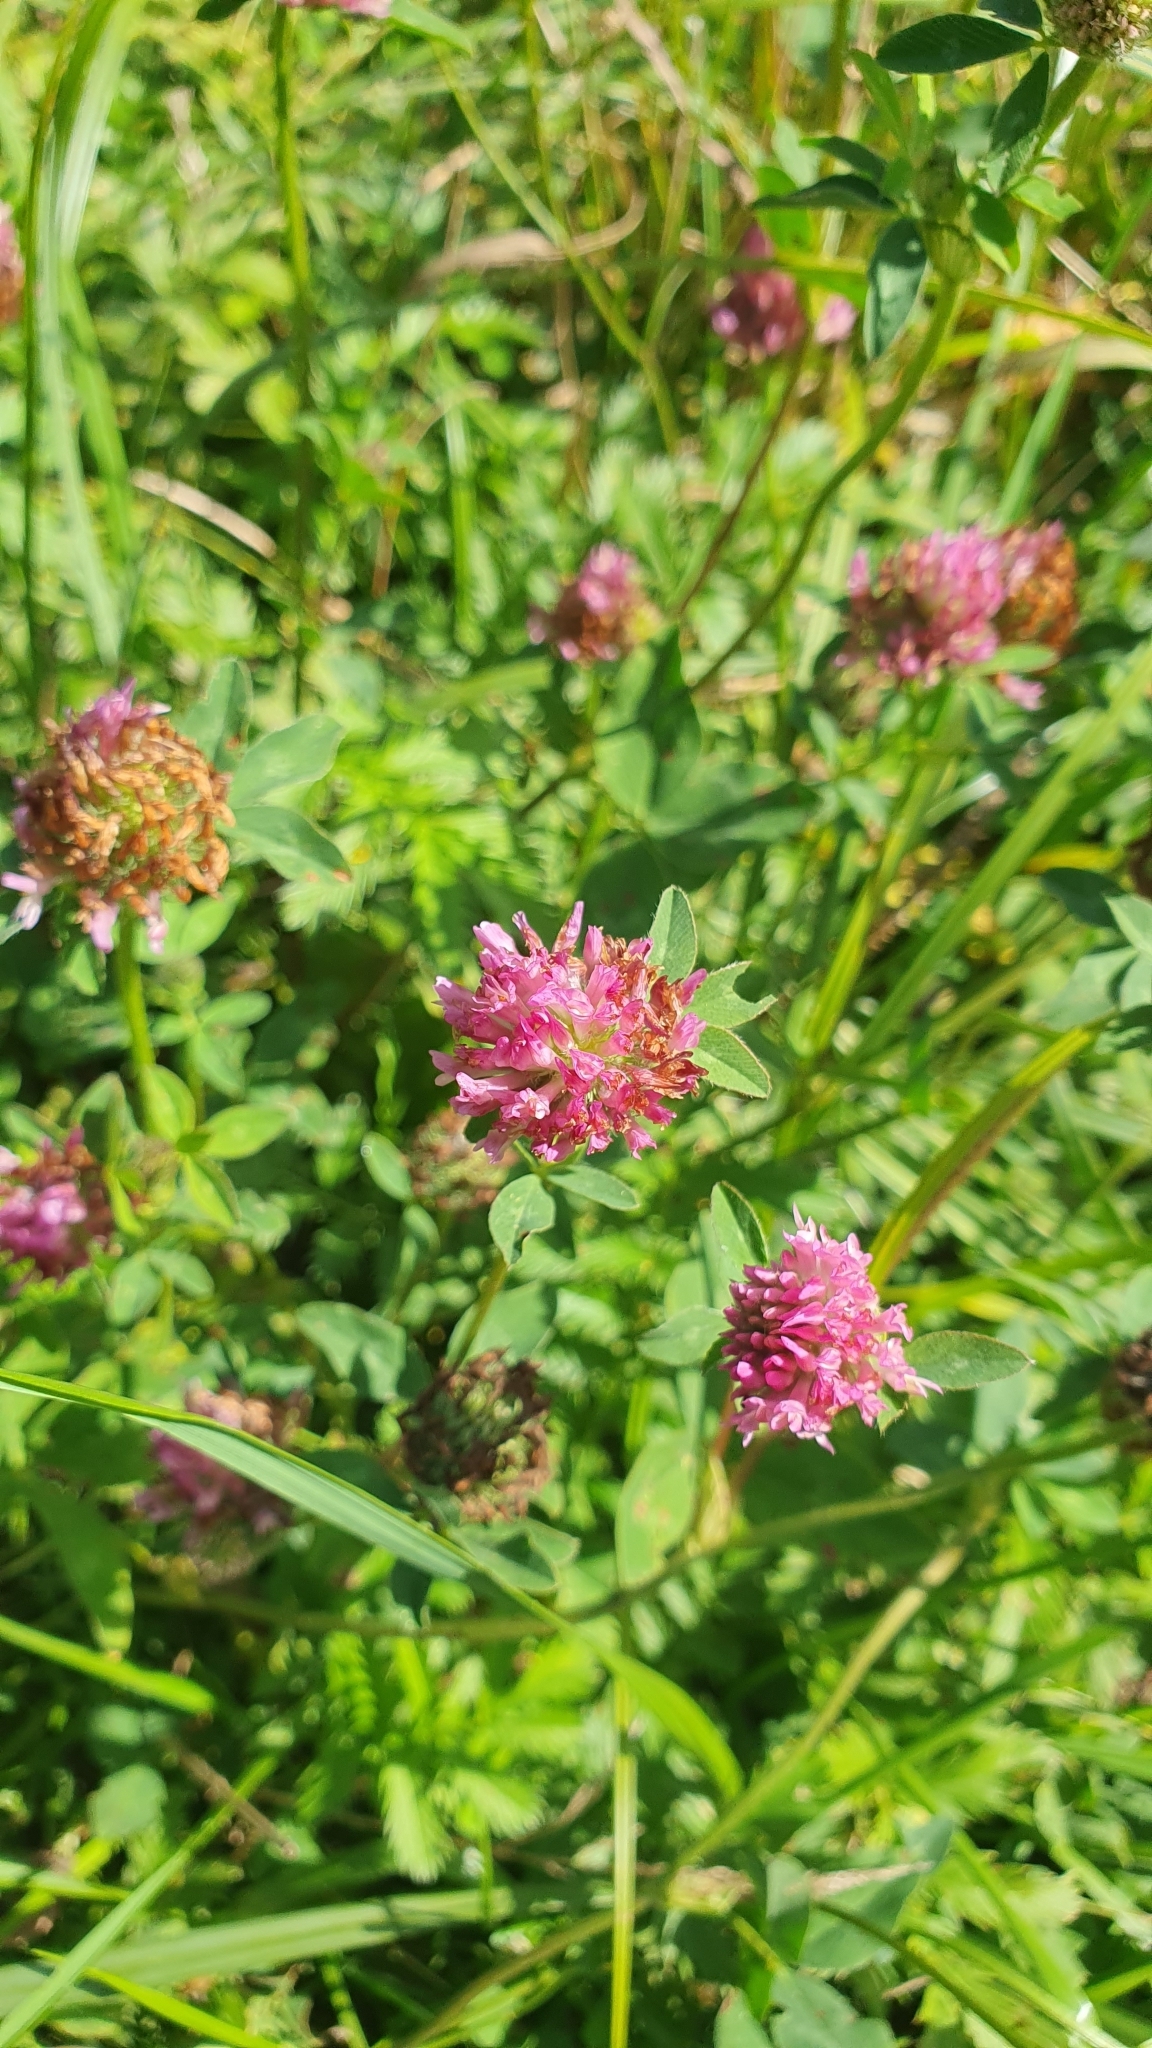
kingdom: Plantae
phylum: Tracheophyta
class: Magnoliopsida
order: Fabales
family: Fabaceae
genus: Trifolium
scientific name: Trifolium pratense
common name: Red clover
